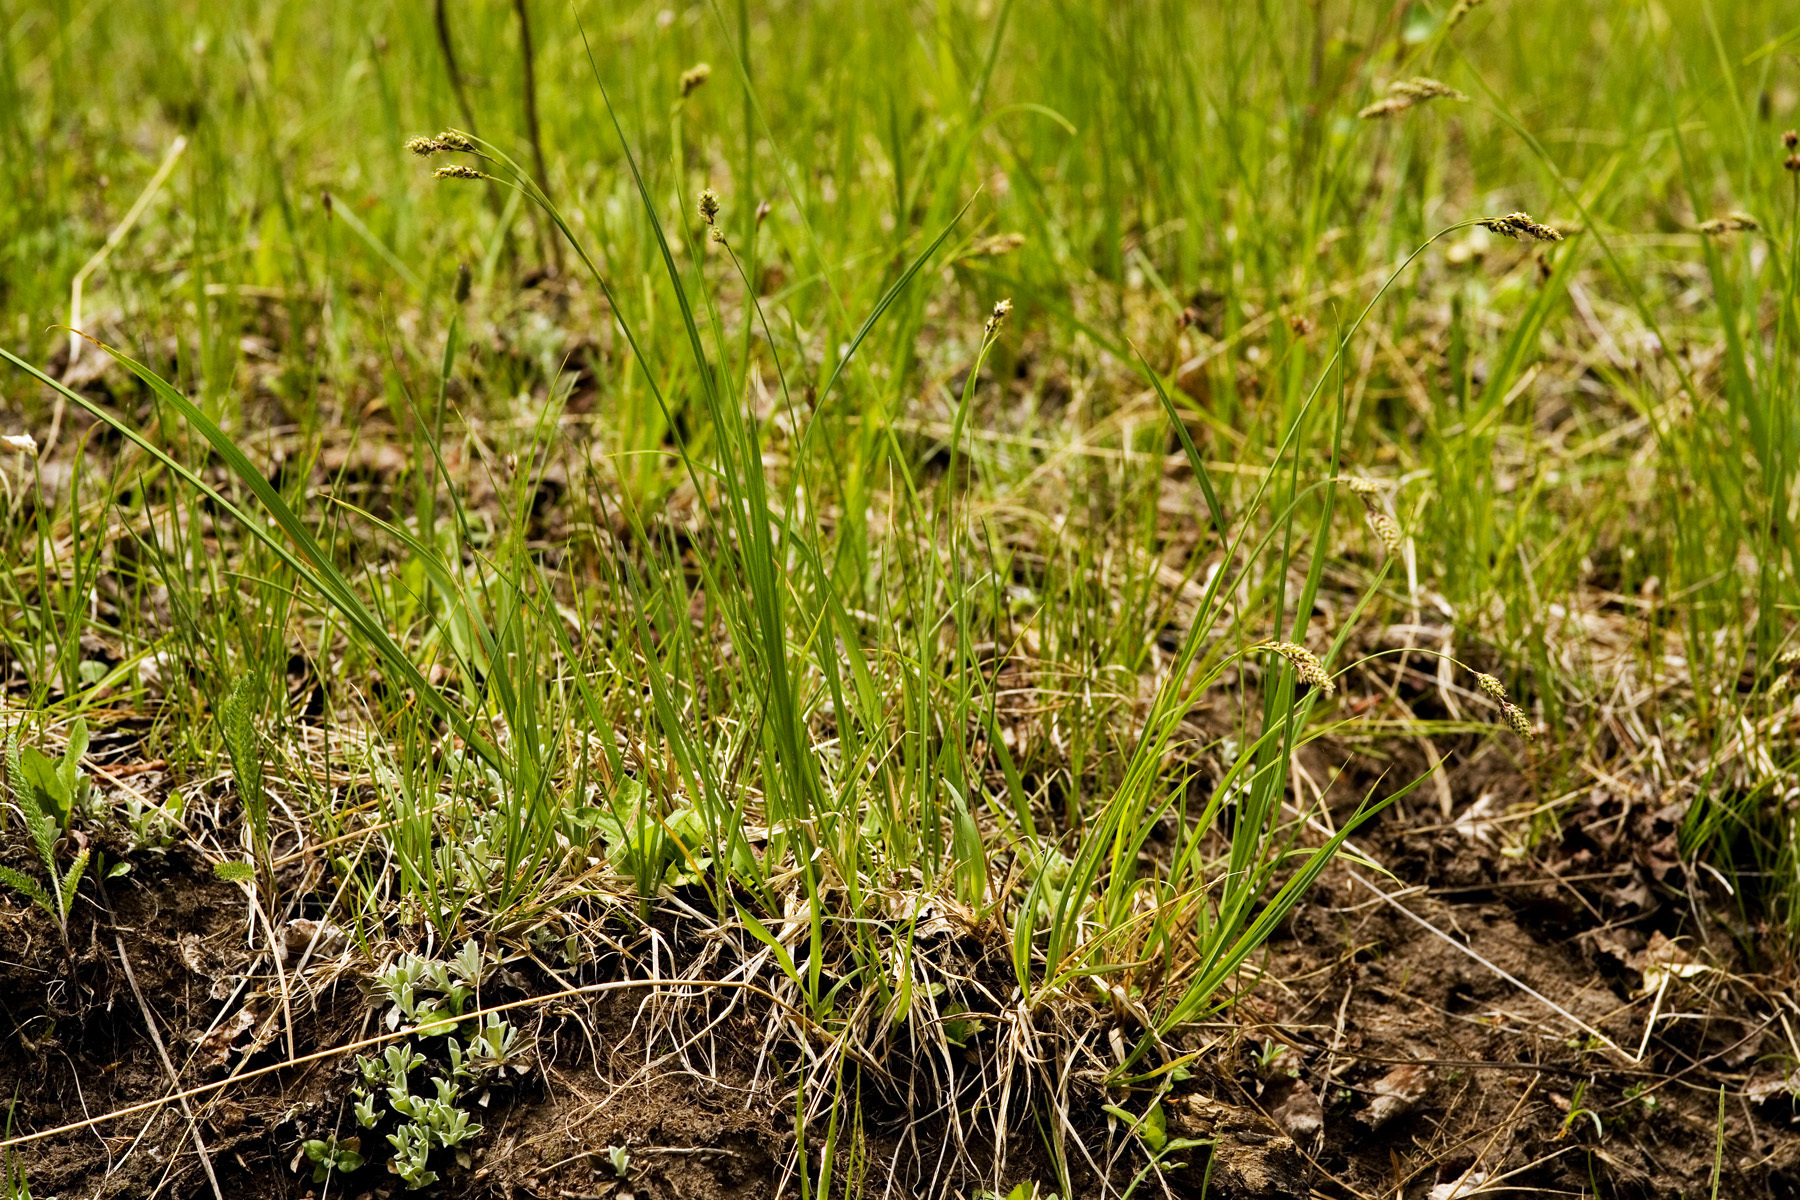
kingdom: Plantae
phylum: Tracheophyta
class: Liliopsida
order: Poales
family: Cyperaceae
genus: Carex
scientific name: Carex bella
